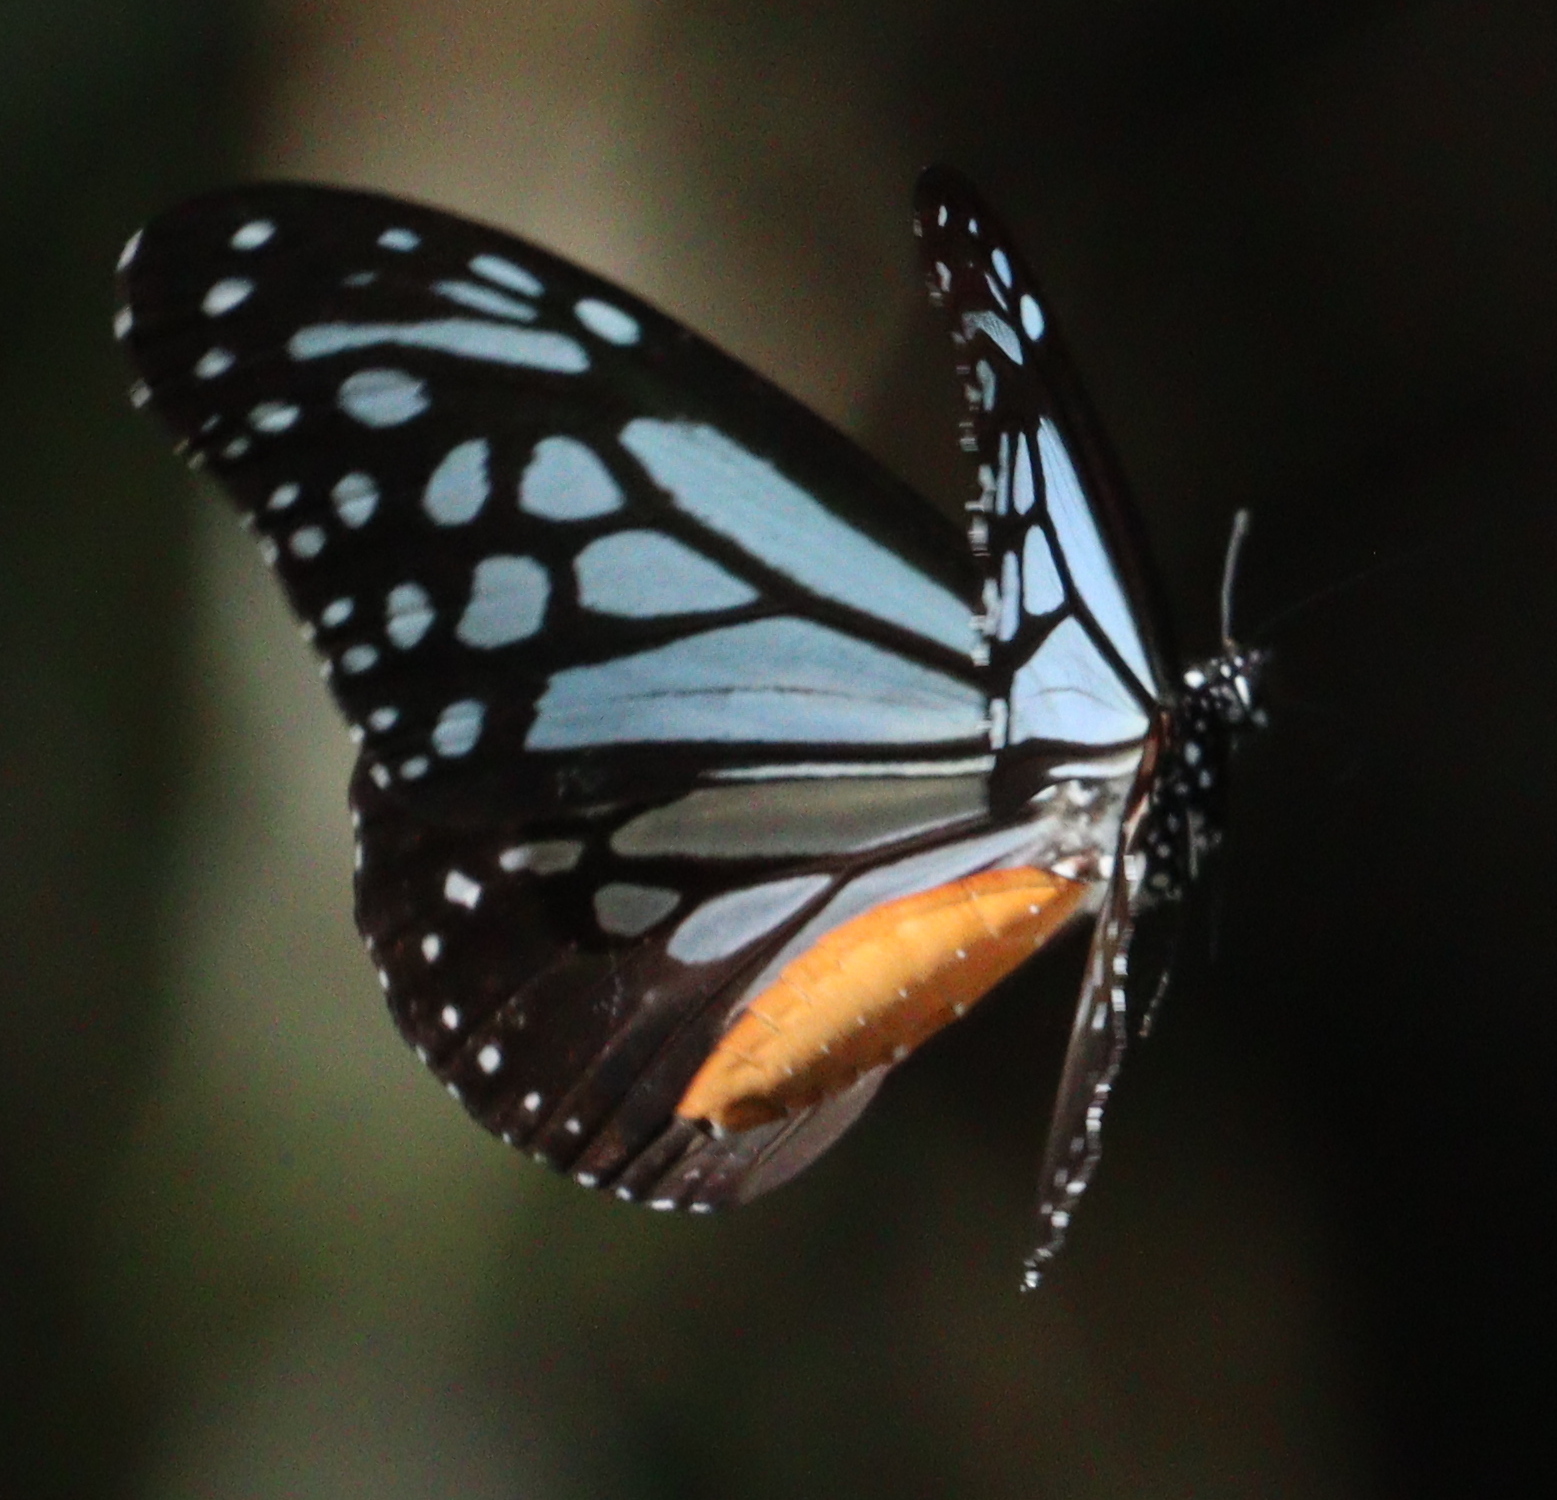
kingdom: Animalia
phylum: Arthropoda
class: Insecta
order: Lepidoptera
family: Nymphalidae
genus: Parantica
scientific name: Parantica melaneus
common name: Chocolate tiger
